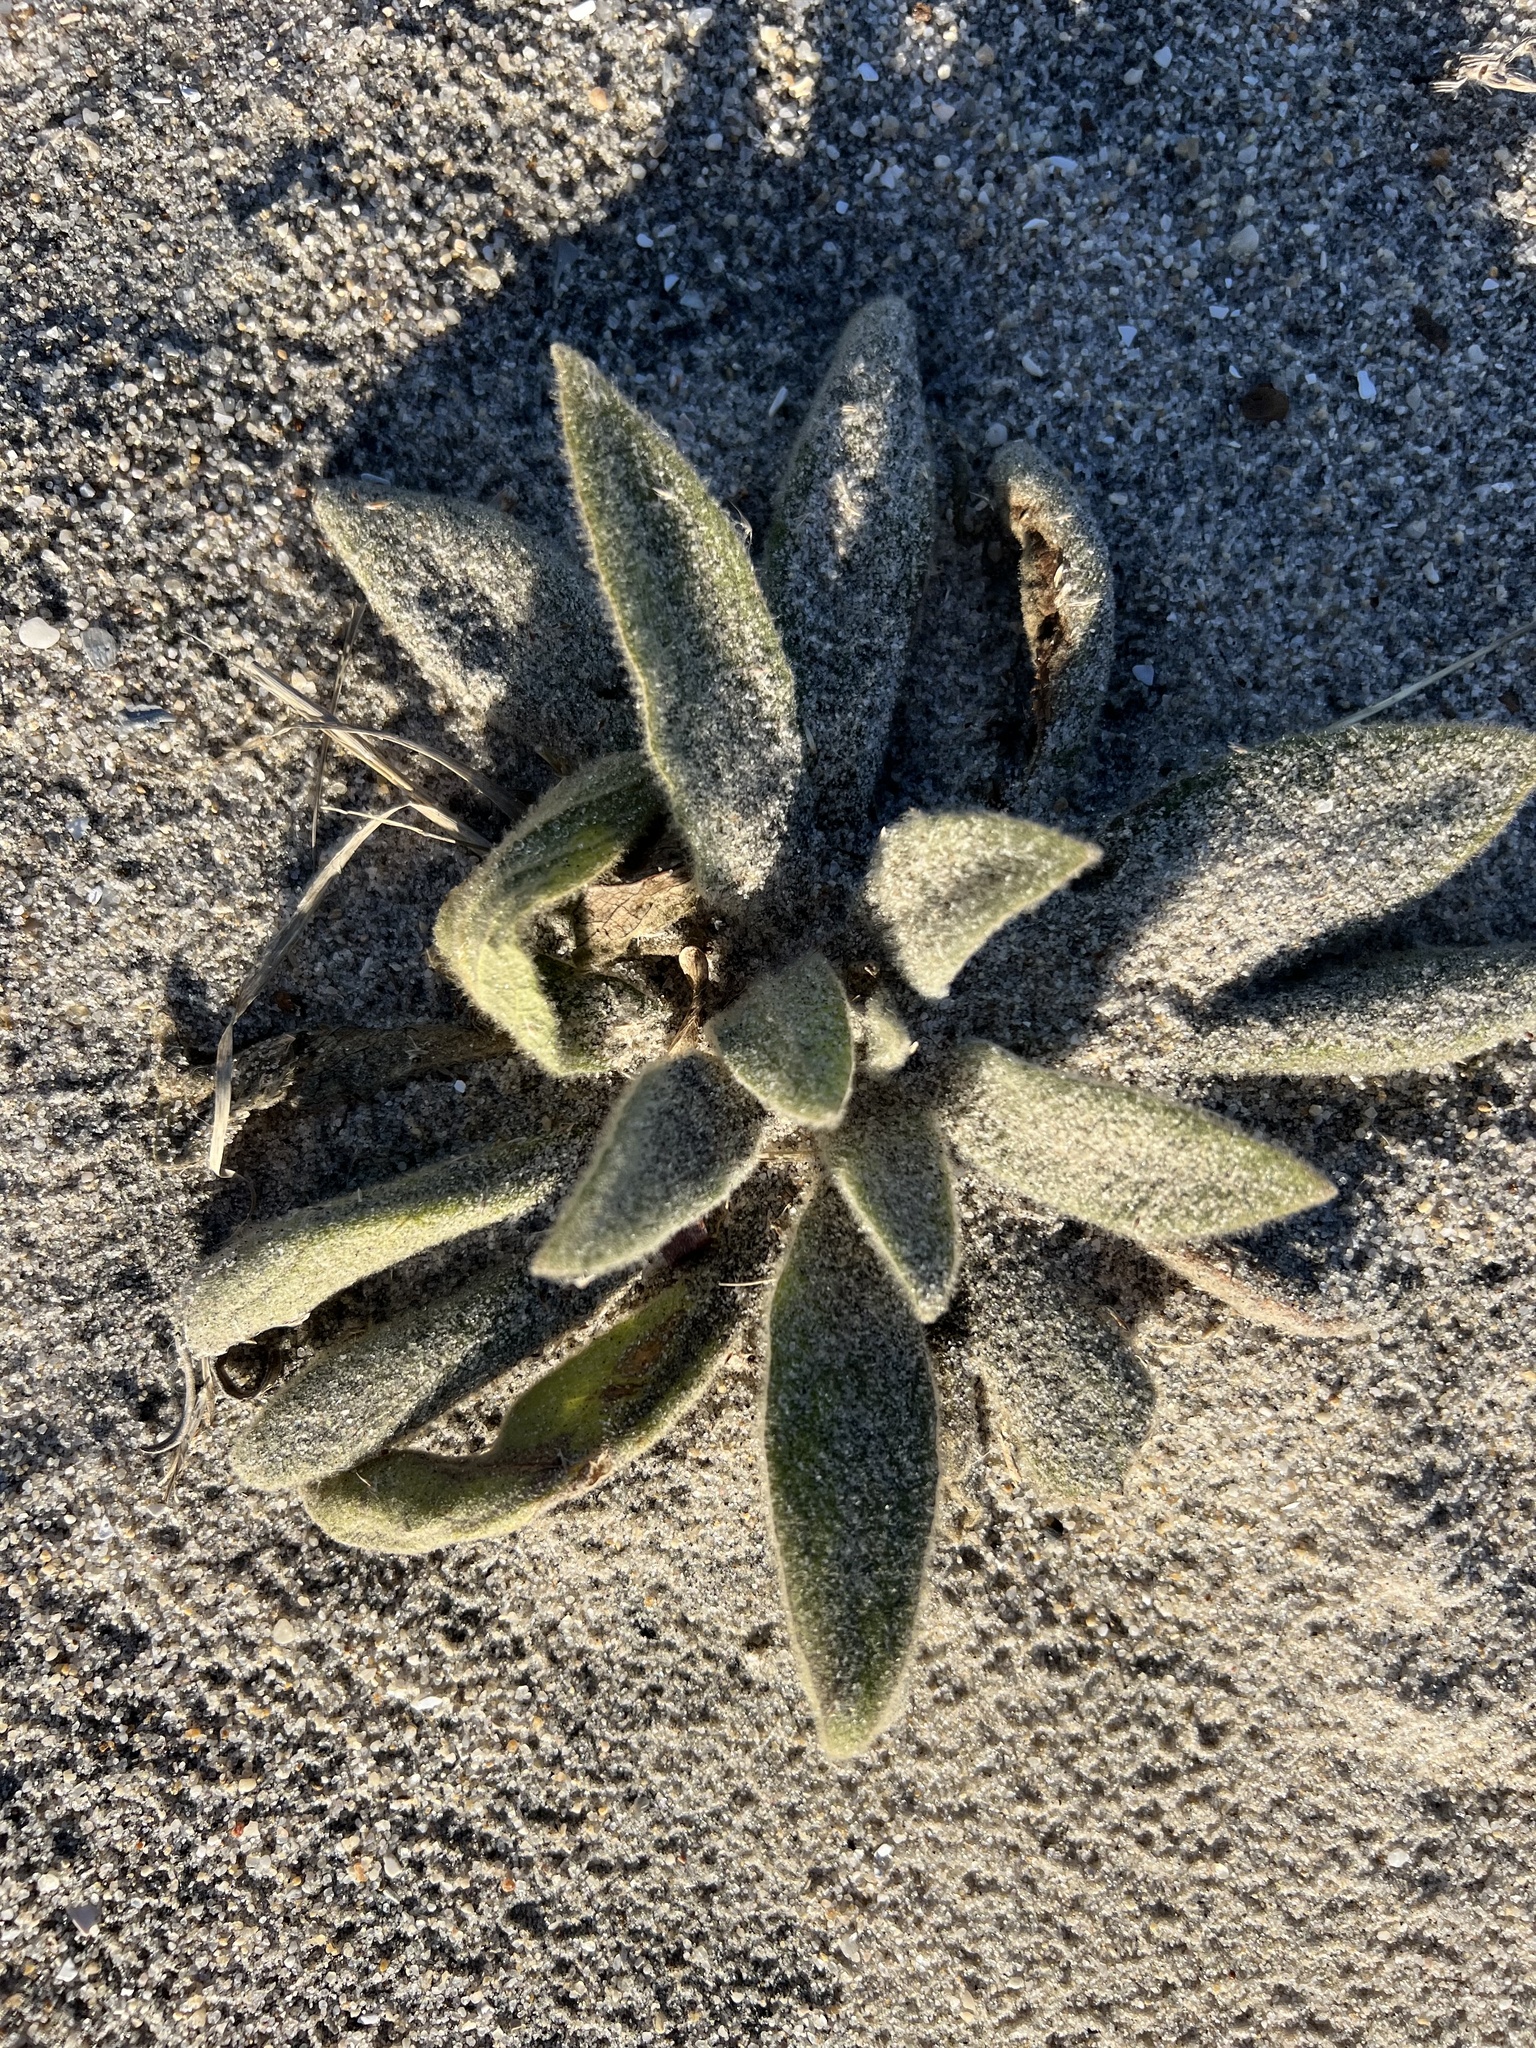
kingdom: Plantae
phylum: Tracheophyta
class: Magnoliopsida
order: Lamiales
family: Scrophulariaceae
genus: Verbascum
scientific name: Verbascum thapsus
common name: Common mullein
